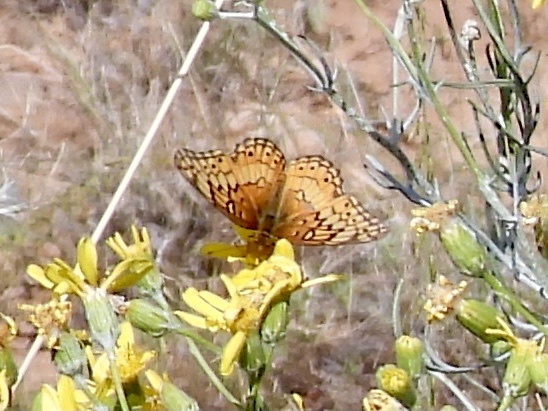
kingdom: Animalia
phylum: Arthropoda
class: Insecta
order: Lepidoptera
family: Nymphalidae
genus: Euptoieta
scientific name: Euptoieta claudia
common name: Variegated fritillary
